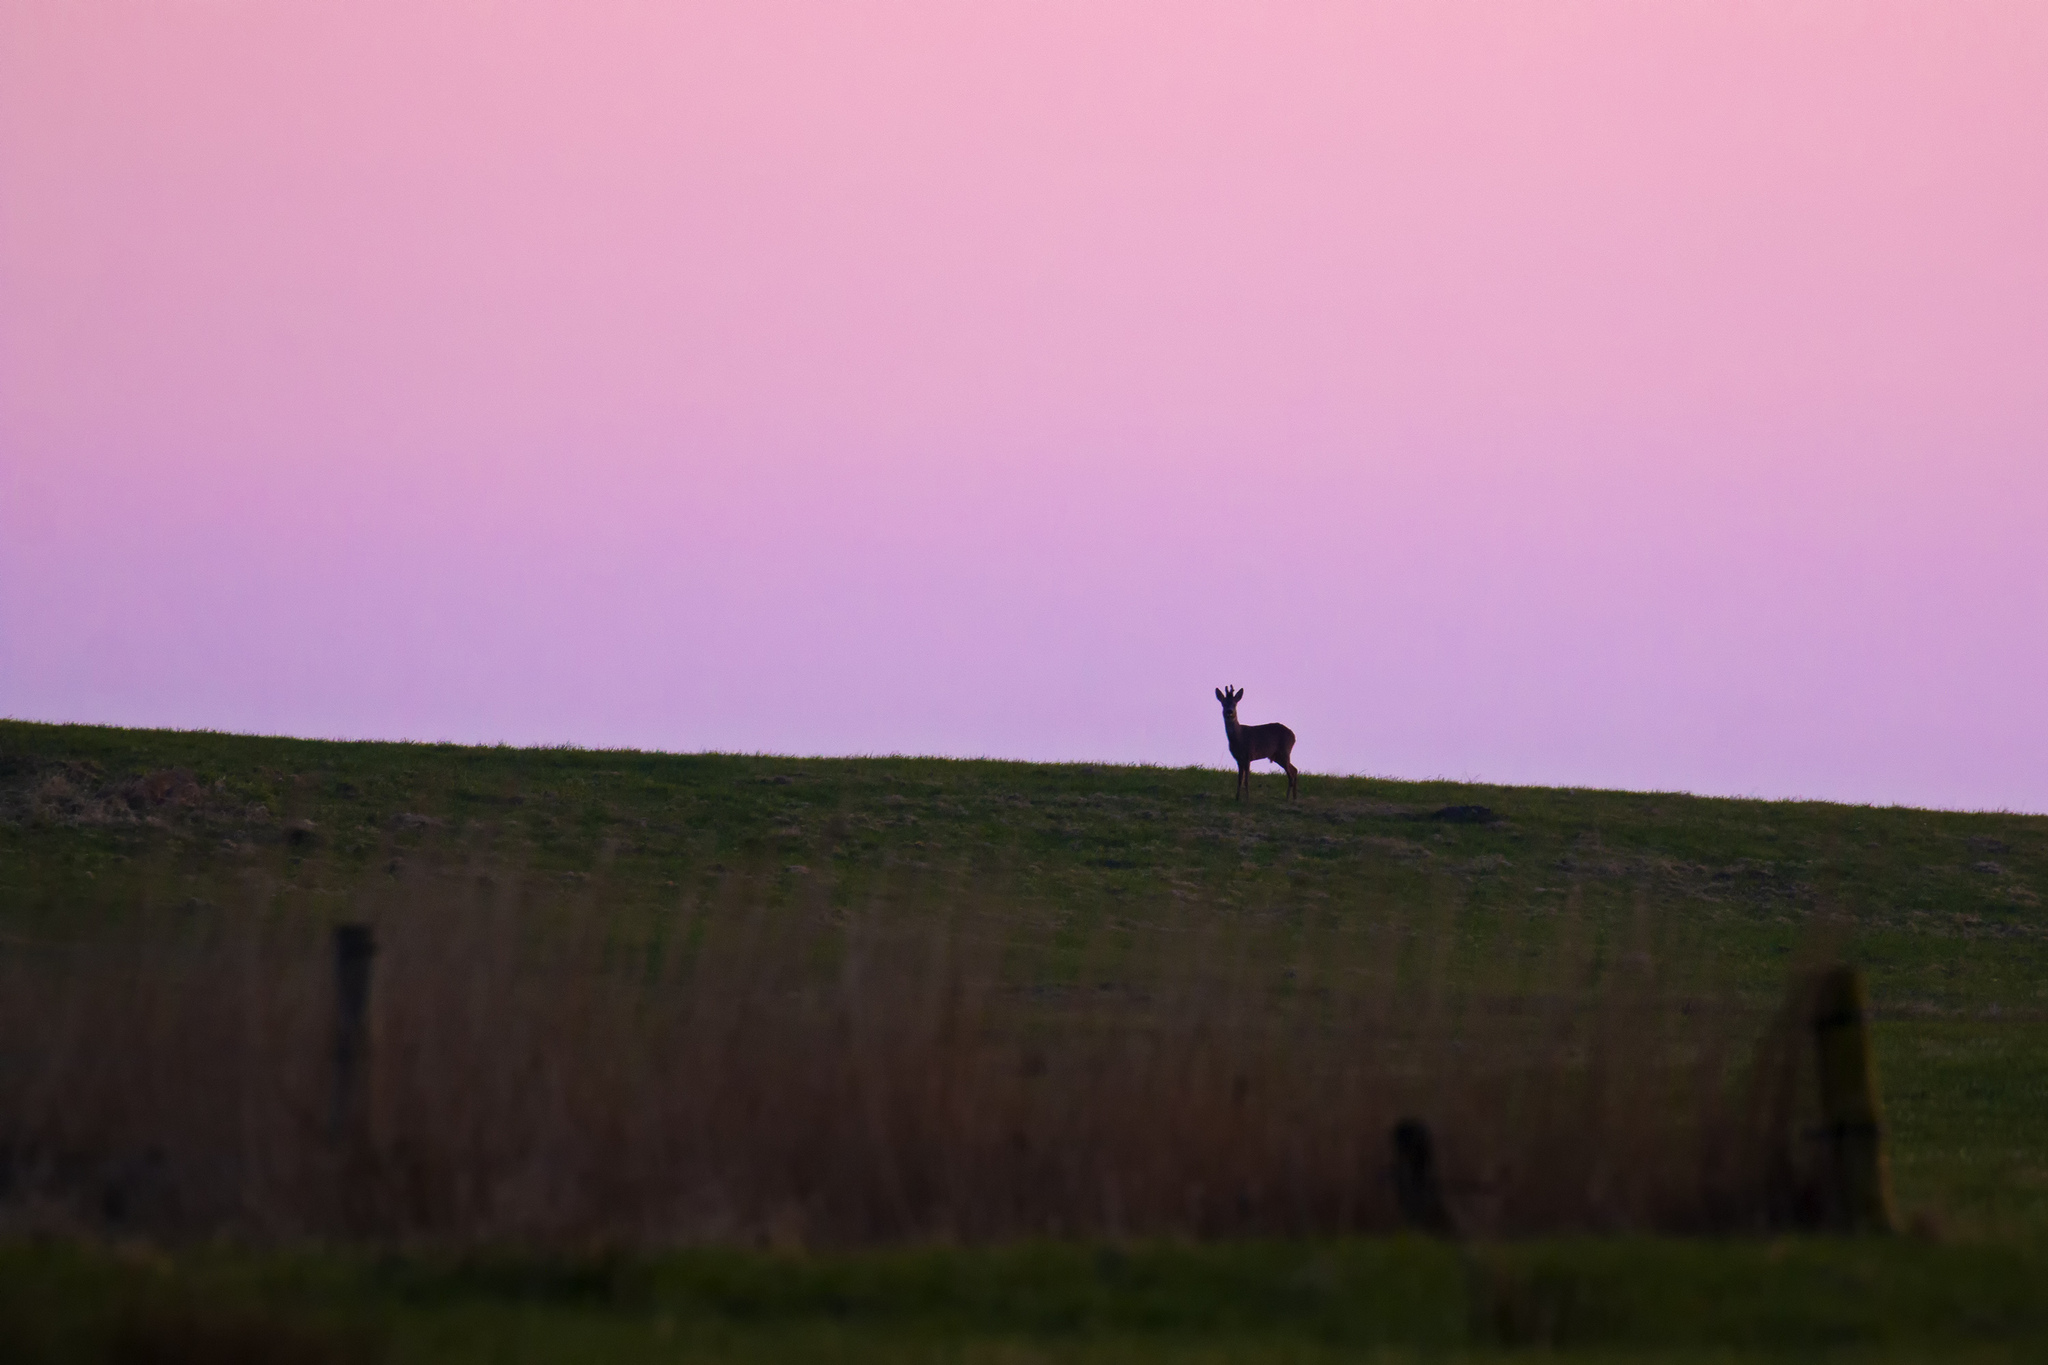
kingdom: Animalia
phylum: Chordata
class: Mammalia
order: Artiodactyla
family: Cervidae
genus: Capreolus
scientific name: Capreolus capreolus
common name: Western roe deer
